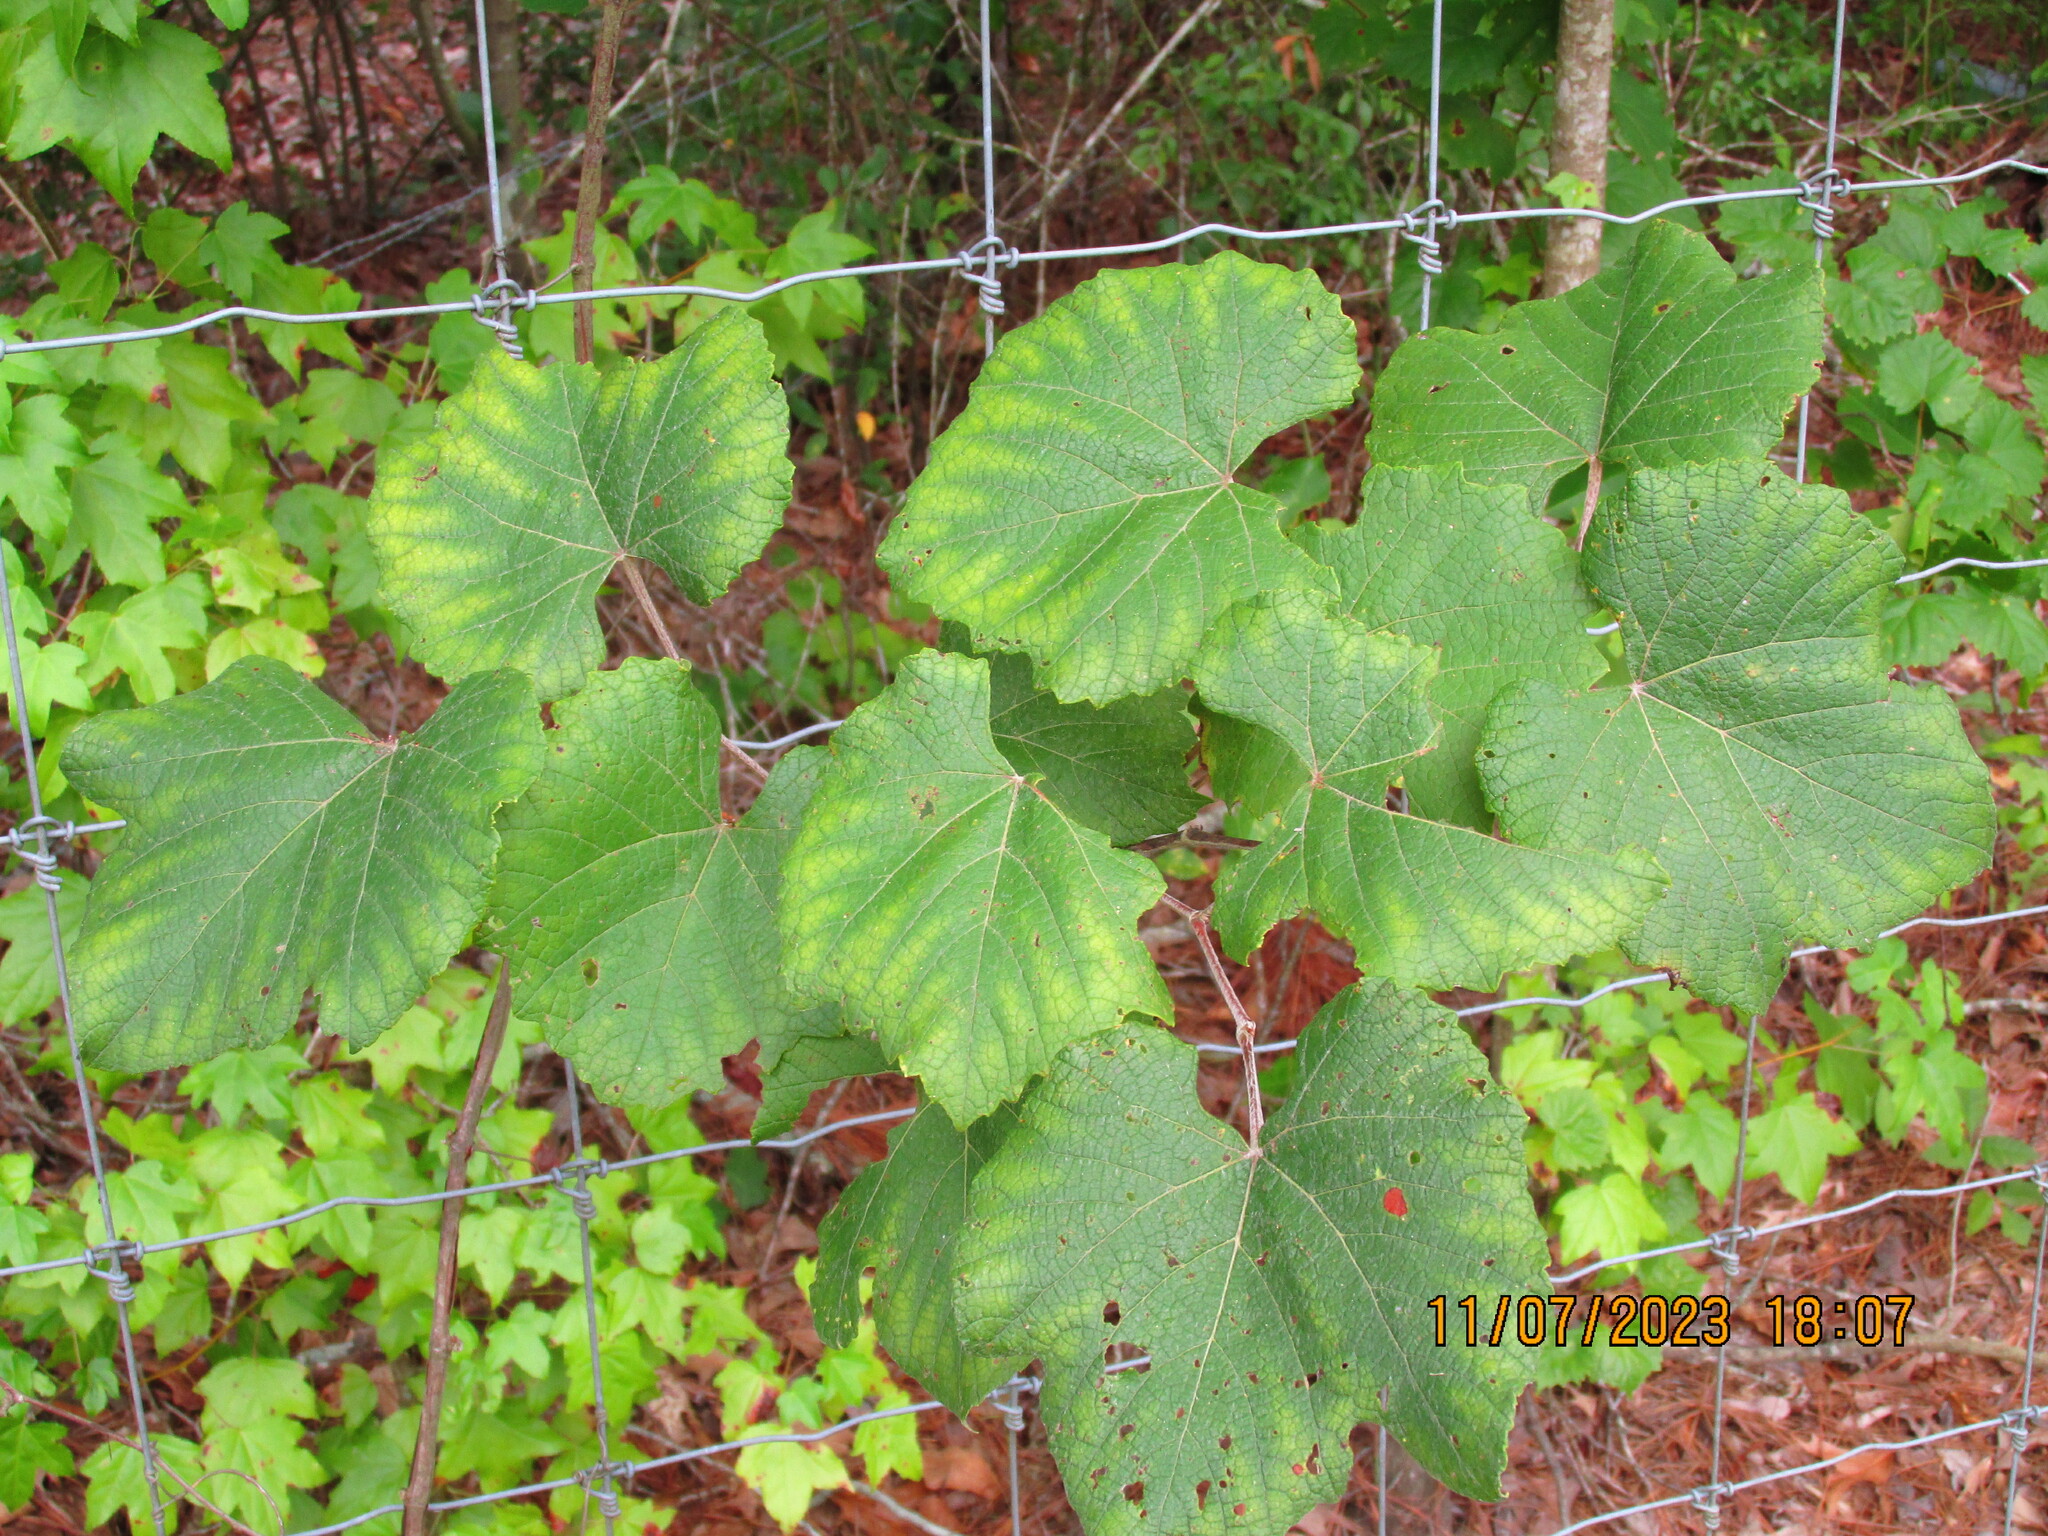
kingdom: Plantae
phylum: Tracheophyta
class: Magnoliopsida
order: Vitales
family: Vitaceae
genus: Vitis
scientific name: Vitis cinerea
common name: Ashy grape
